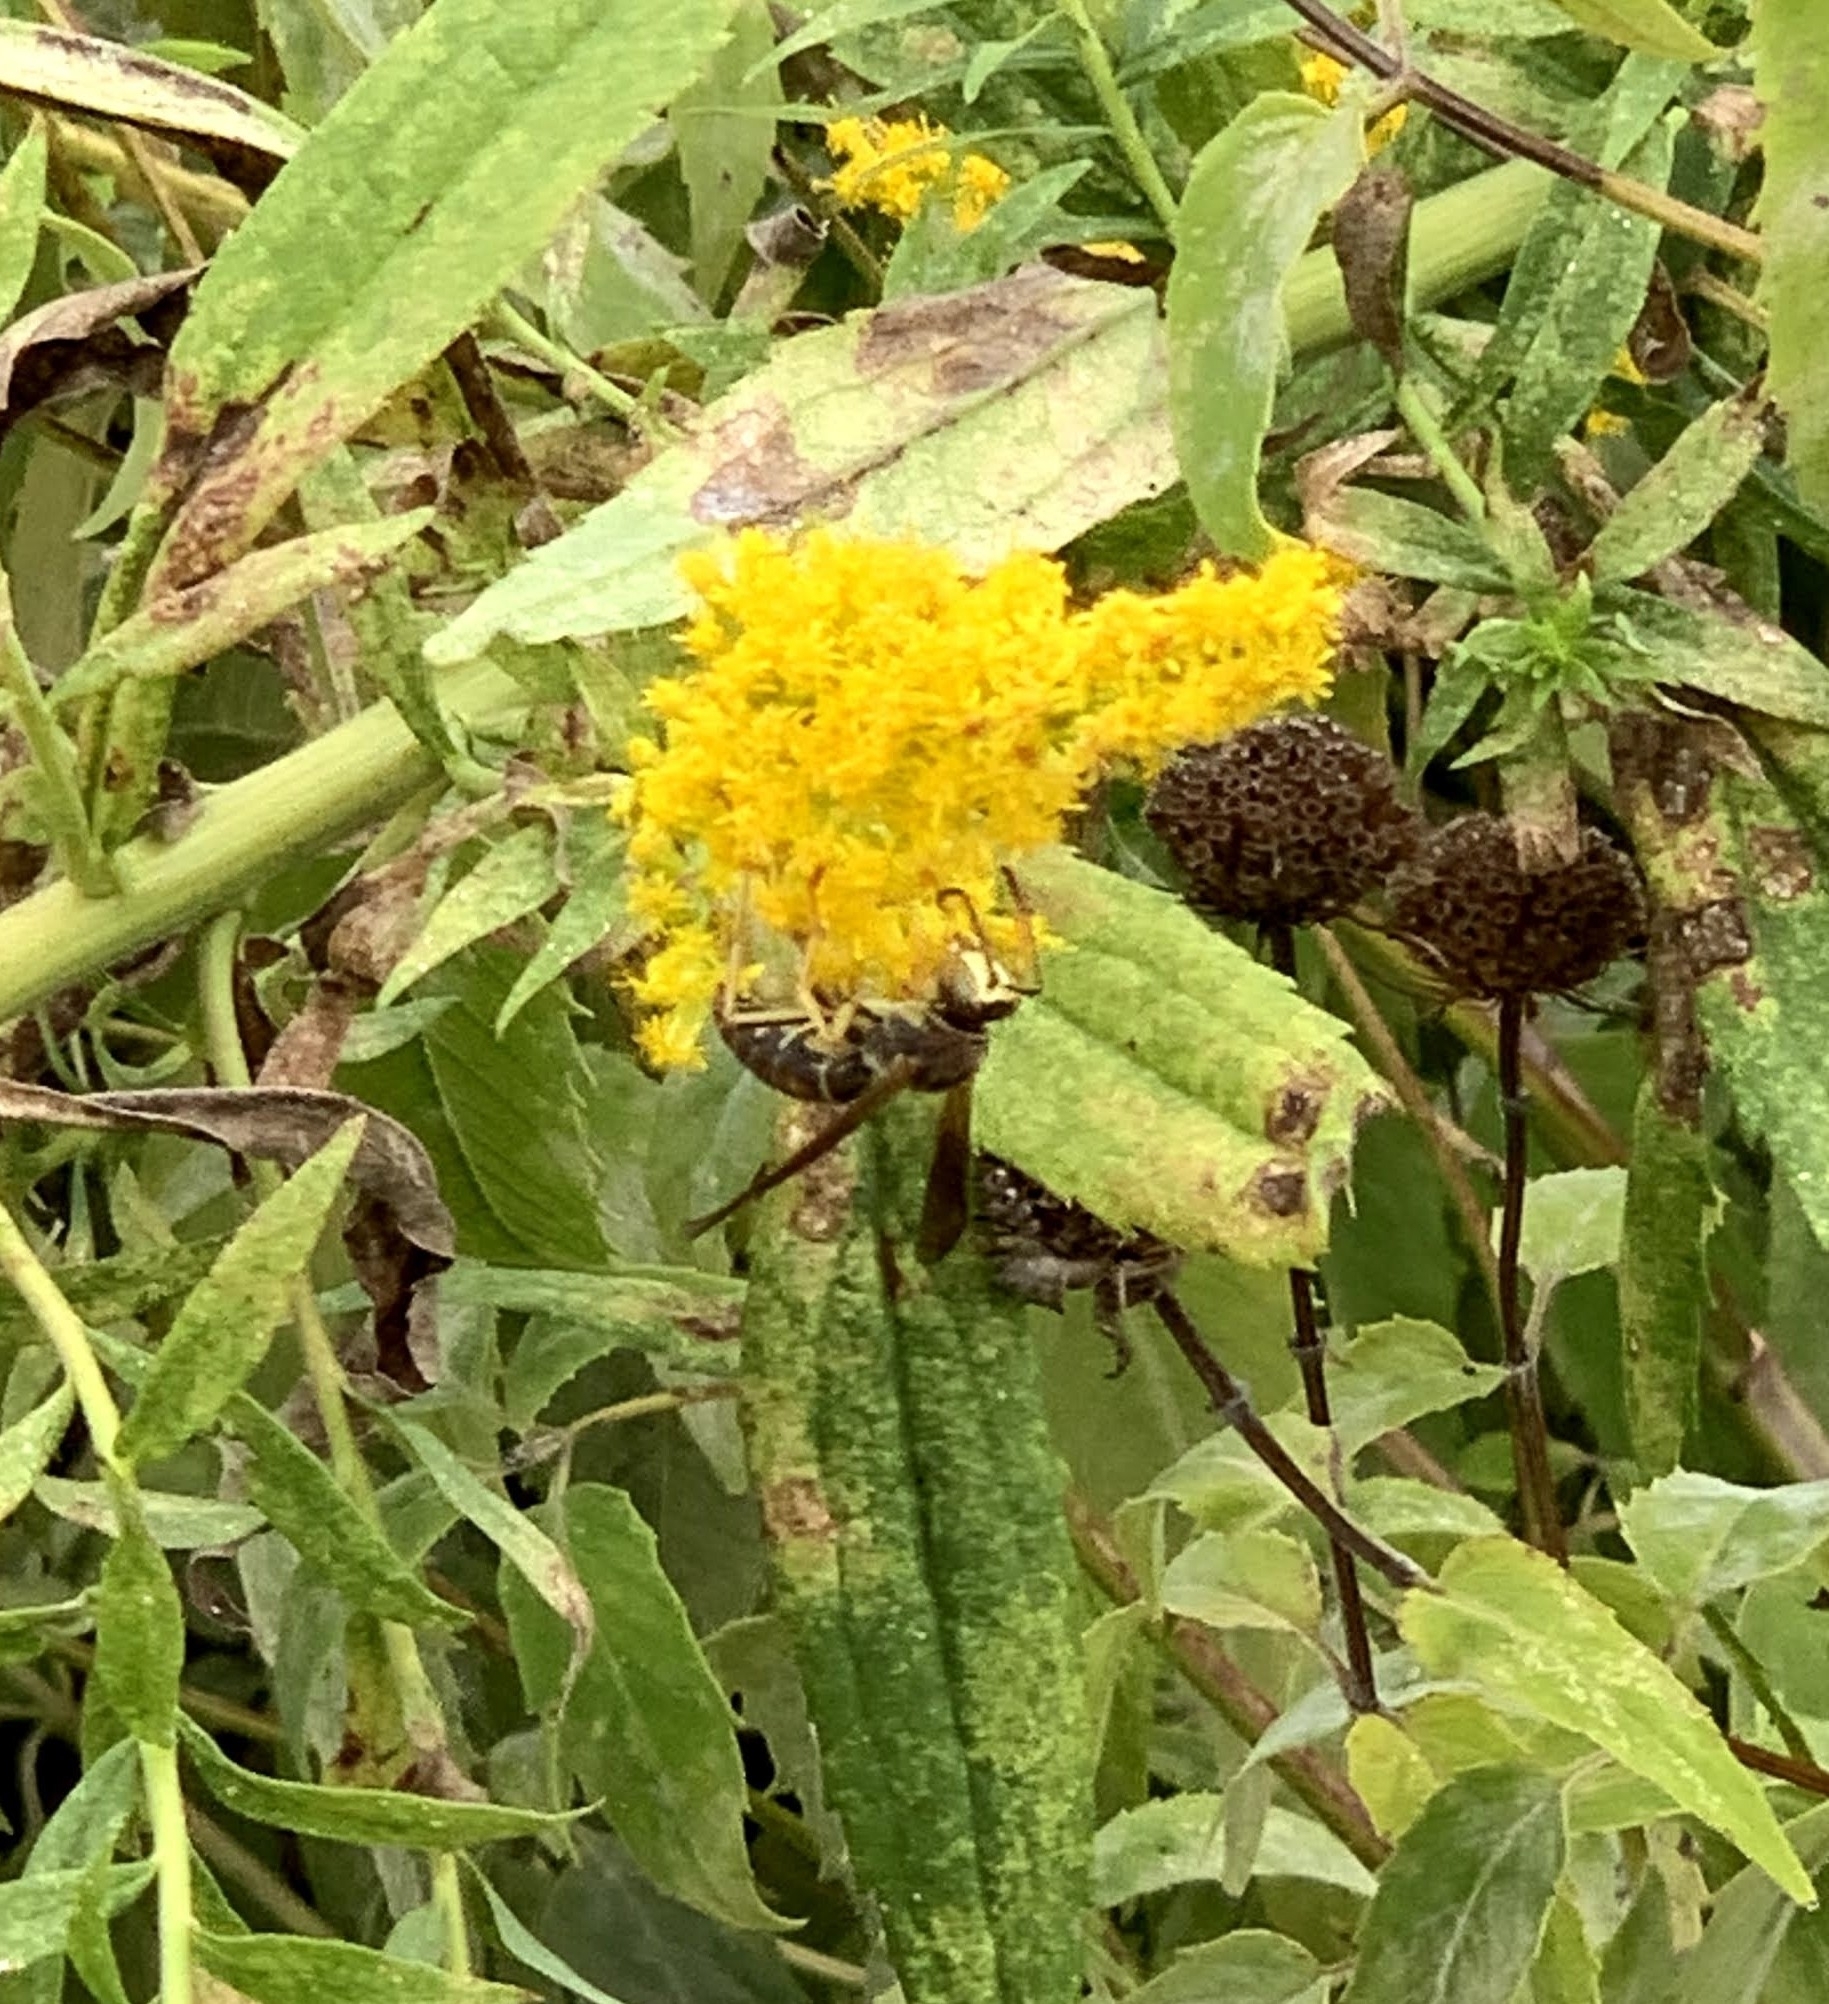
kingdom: Animalia
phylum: Arthropoda
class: Insecta
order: Hymenoptera
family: Eumenidae
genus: Polistes
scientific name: Polistes fuscatus
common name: Dark paper wasp
